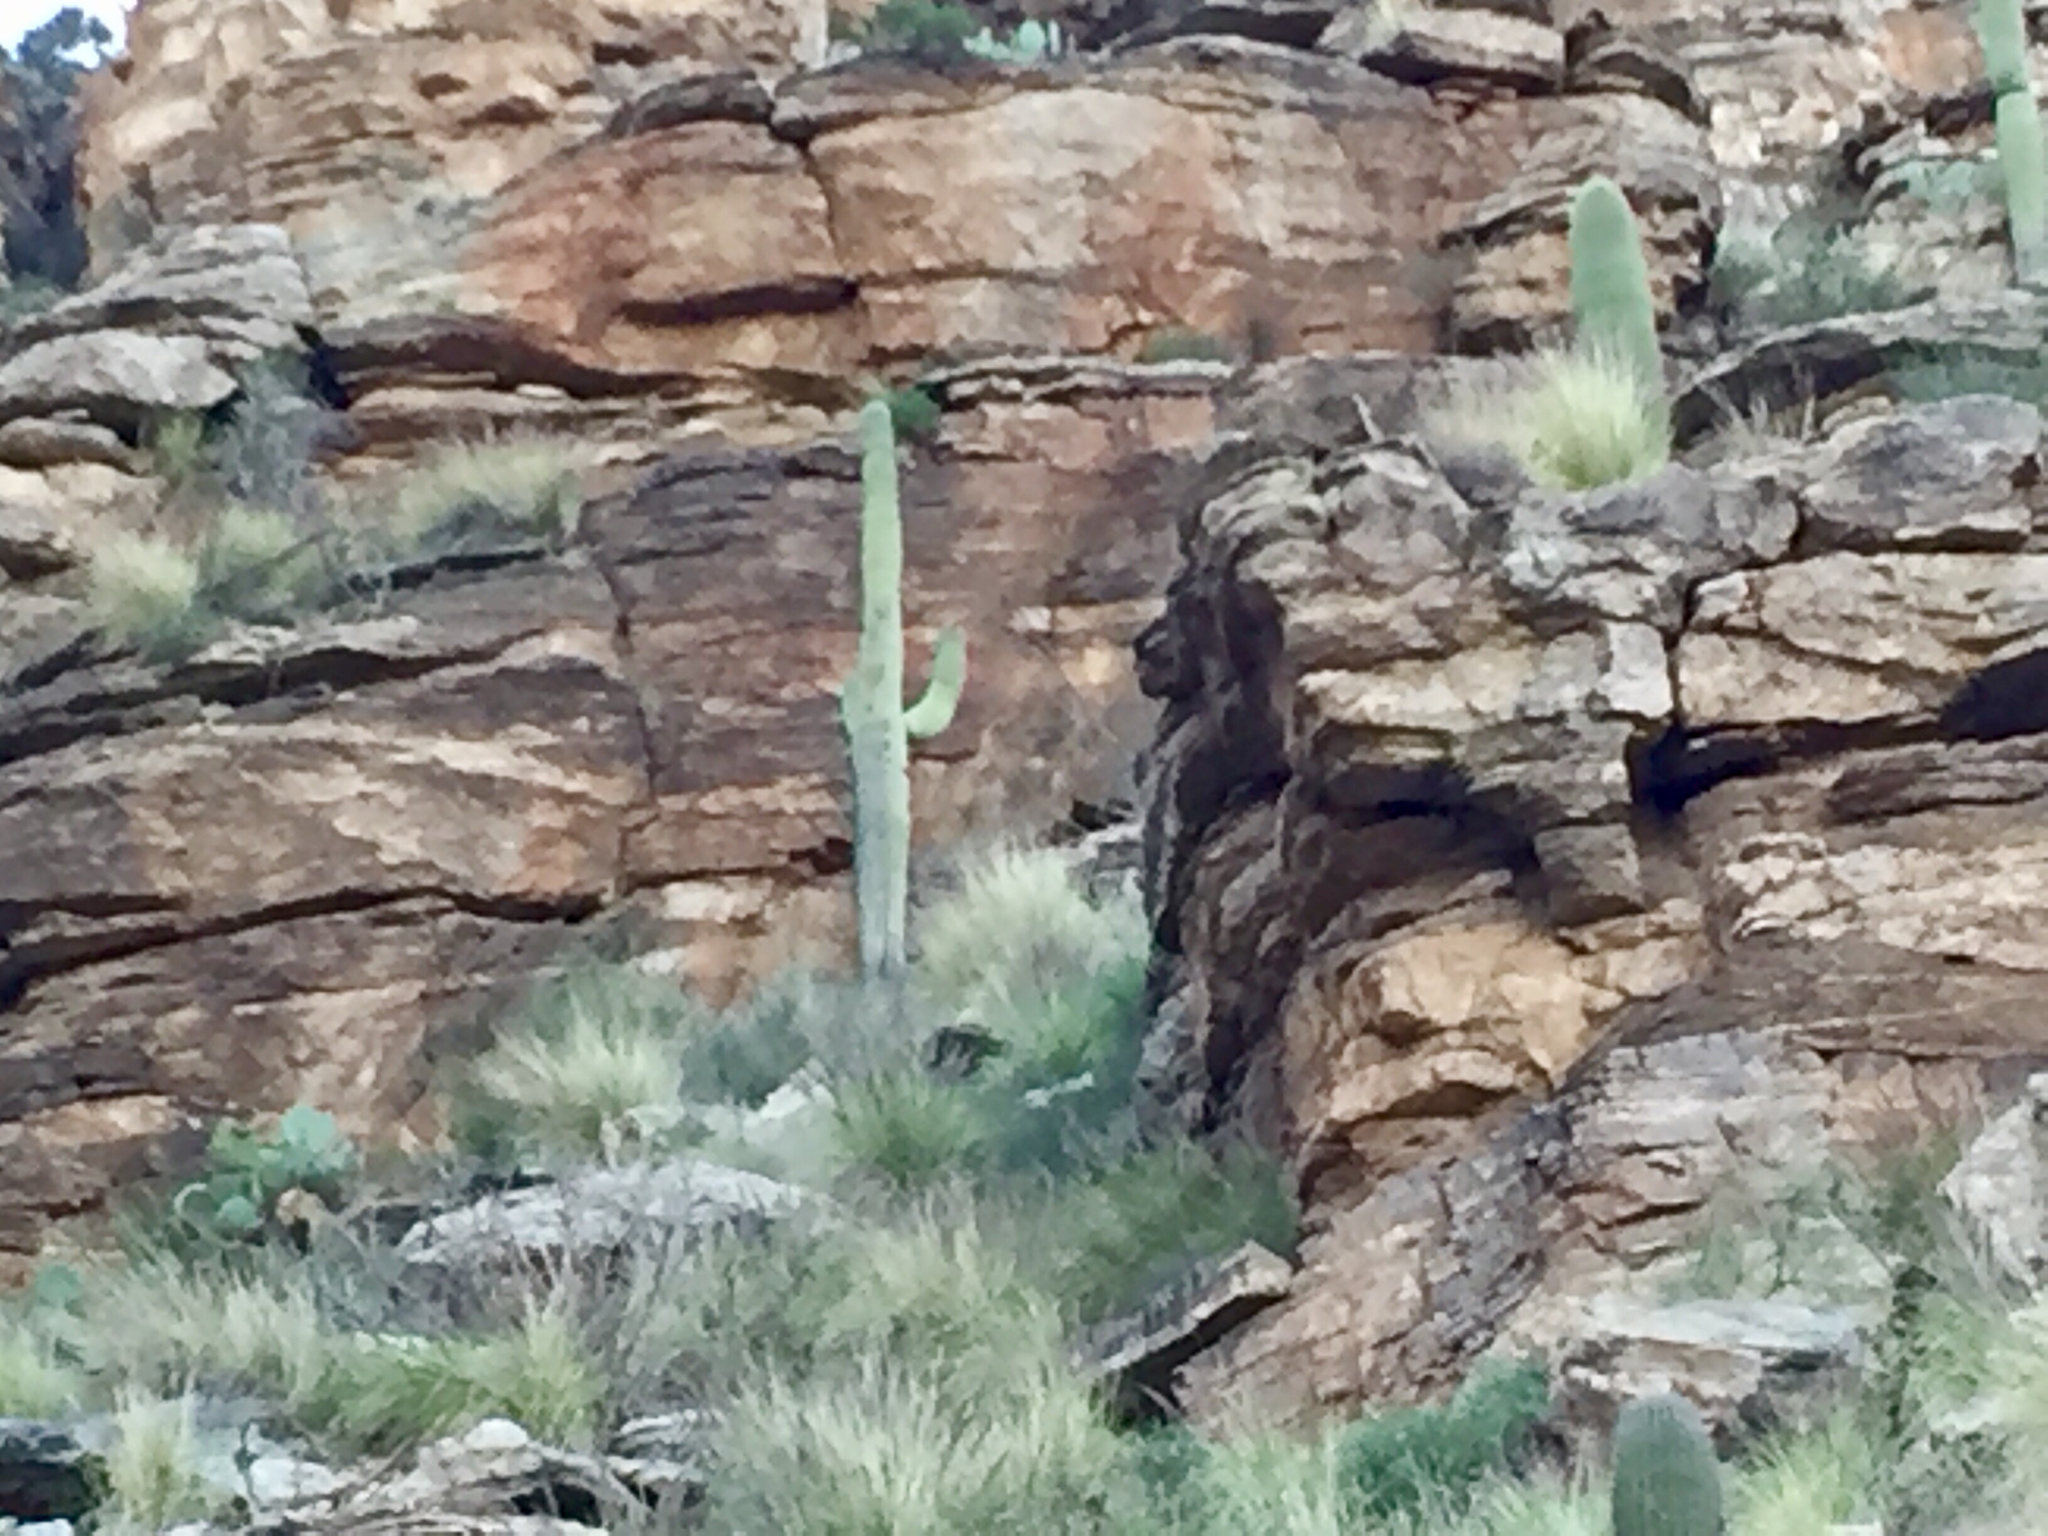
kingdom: Plantae
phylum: Tracheophyta
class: Magnoliopsida
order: Caryophyllales
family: Cactaceae
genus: Carnegiea
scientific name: Carnegiea gigantea
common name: Saguaro
